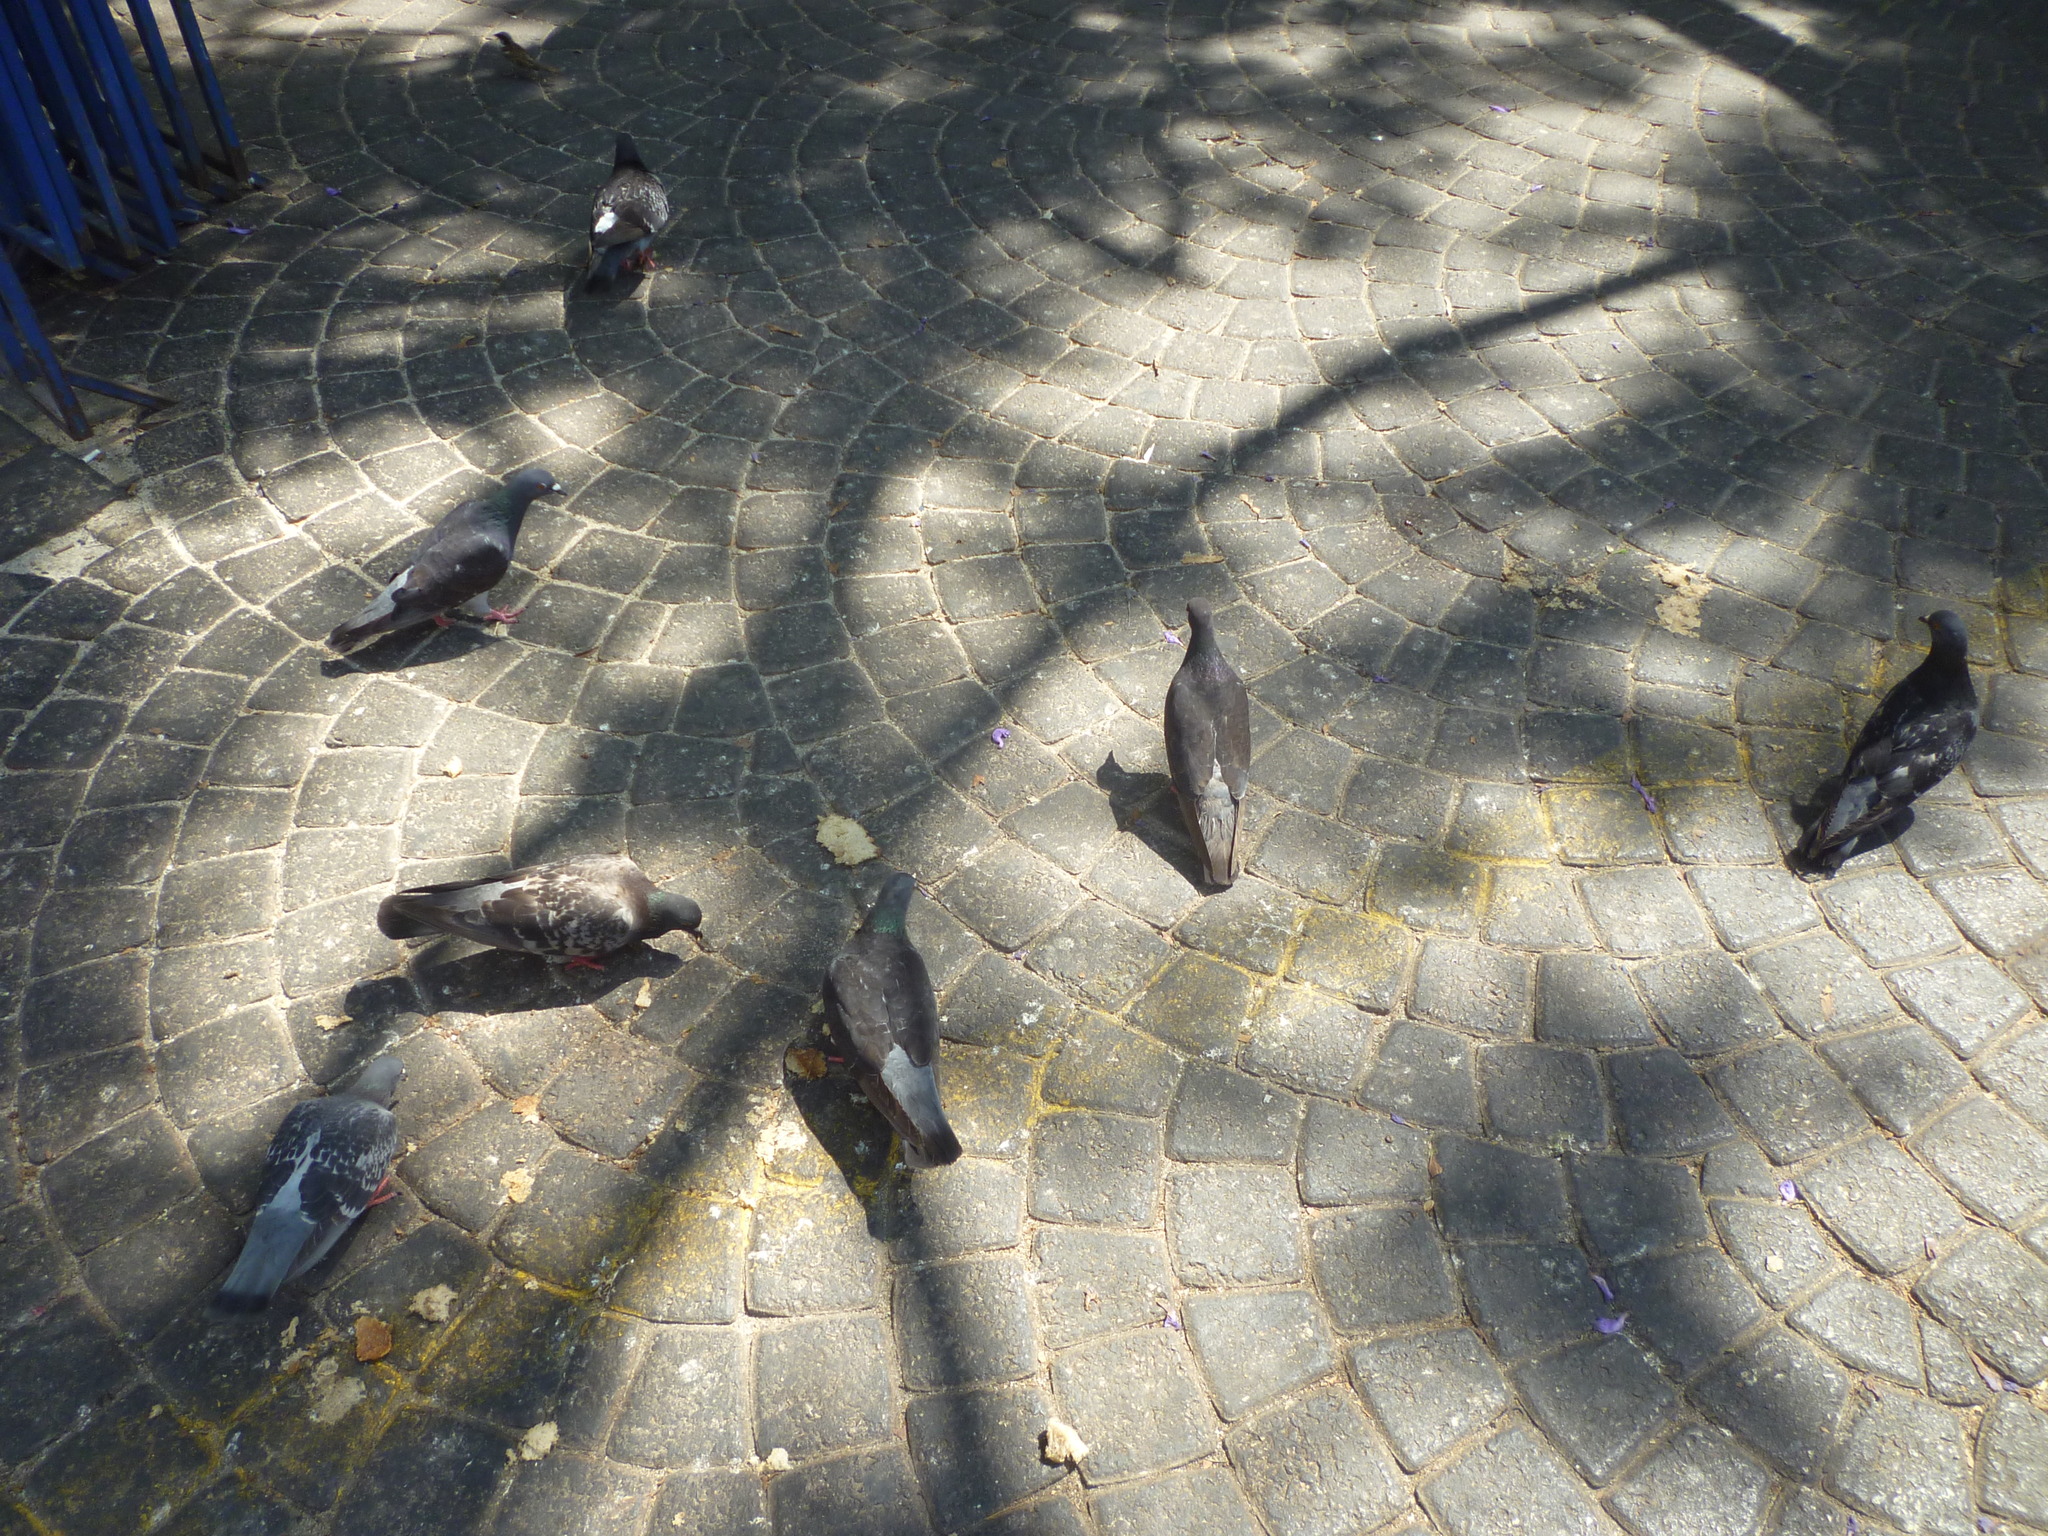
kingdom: Animalia
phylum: Chordata
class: Aves
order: Columbiformes
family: Columbidae
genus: Columba
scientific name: Columba livia
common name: Rock pigeon
